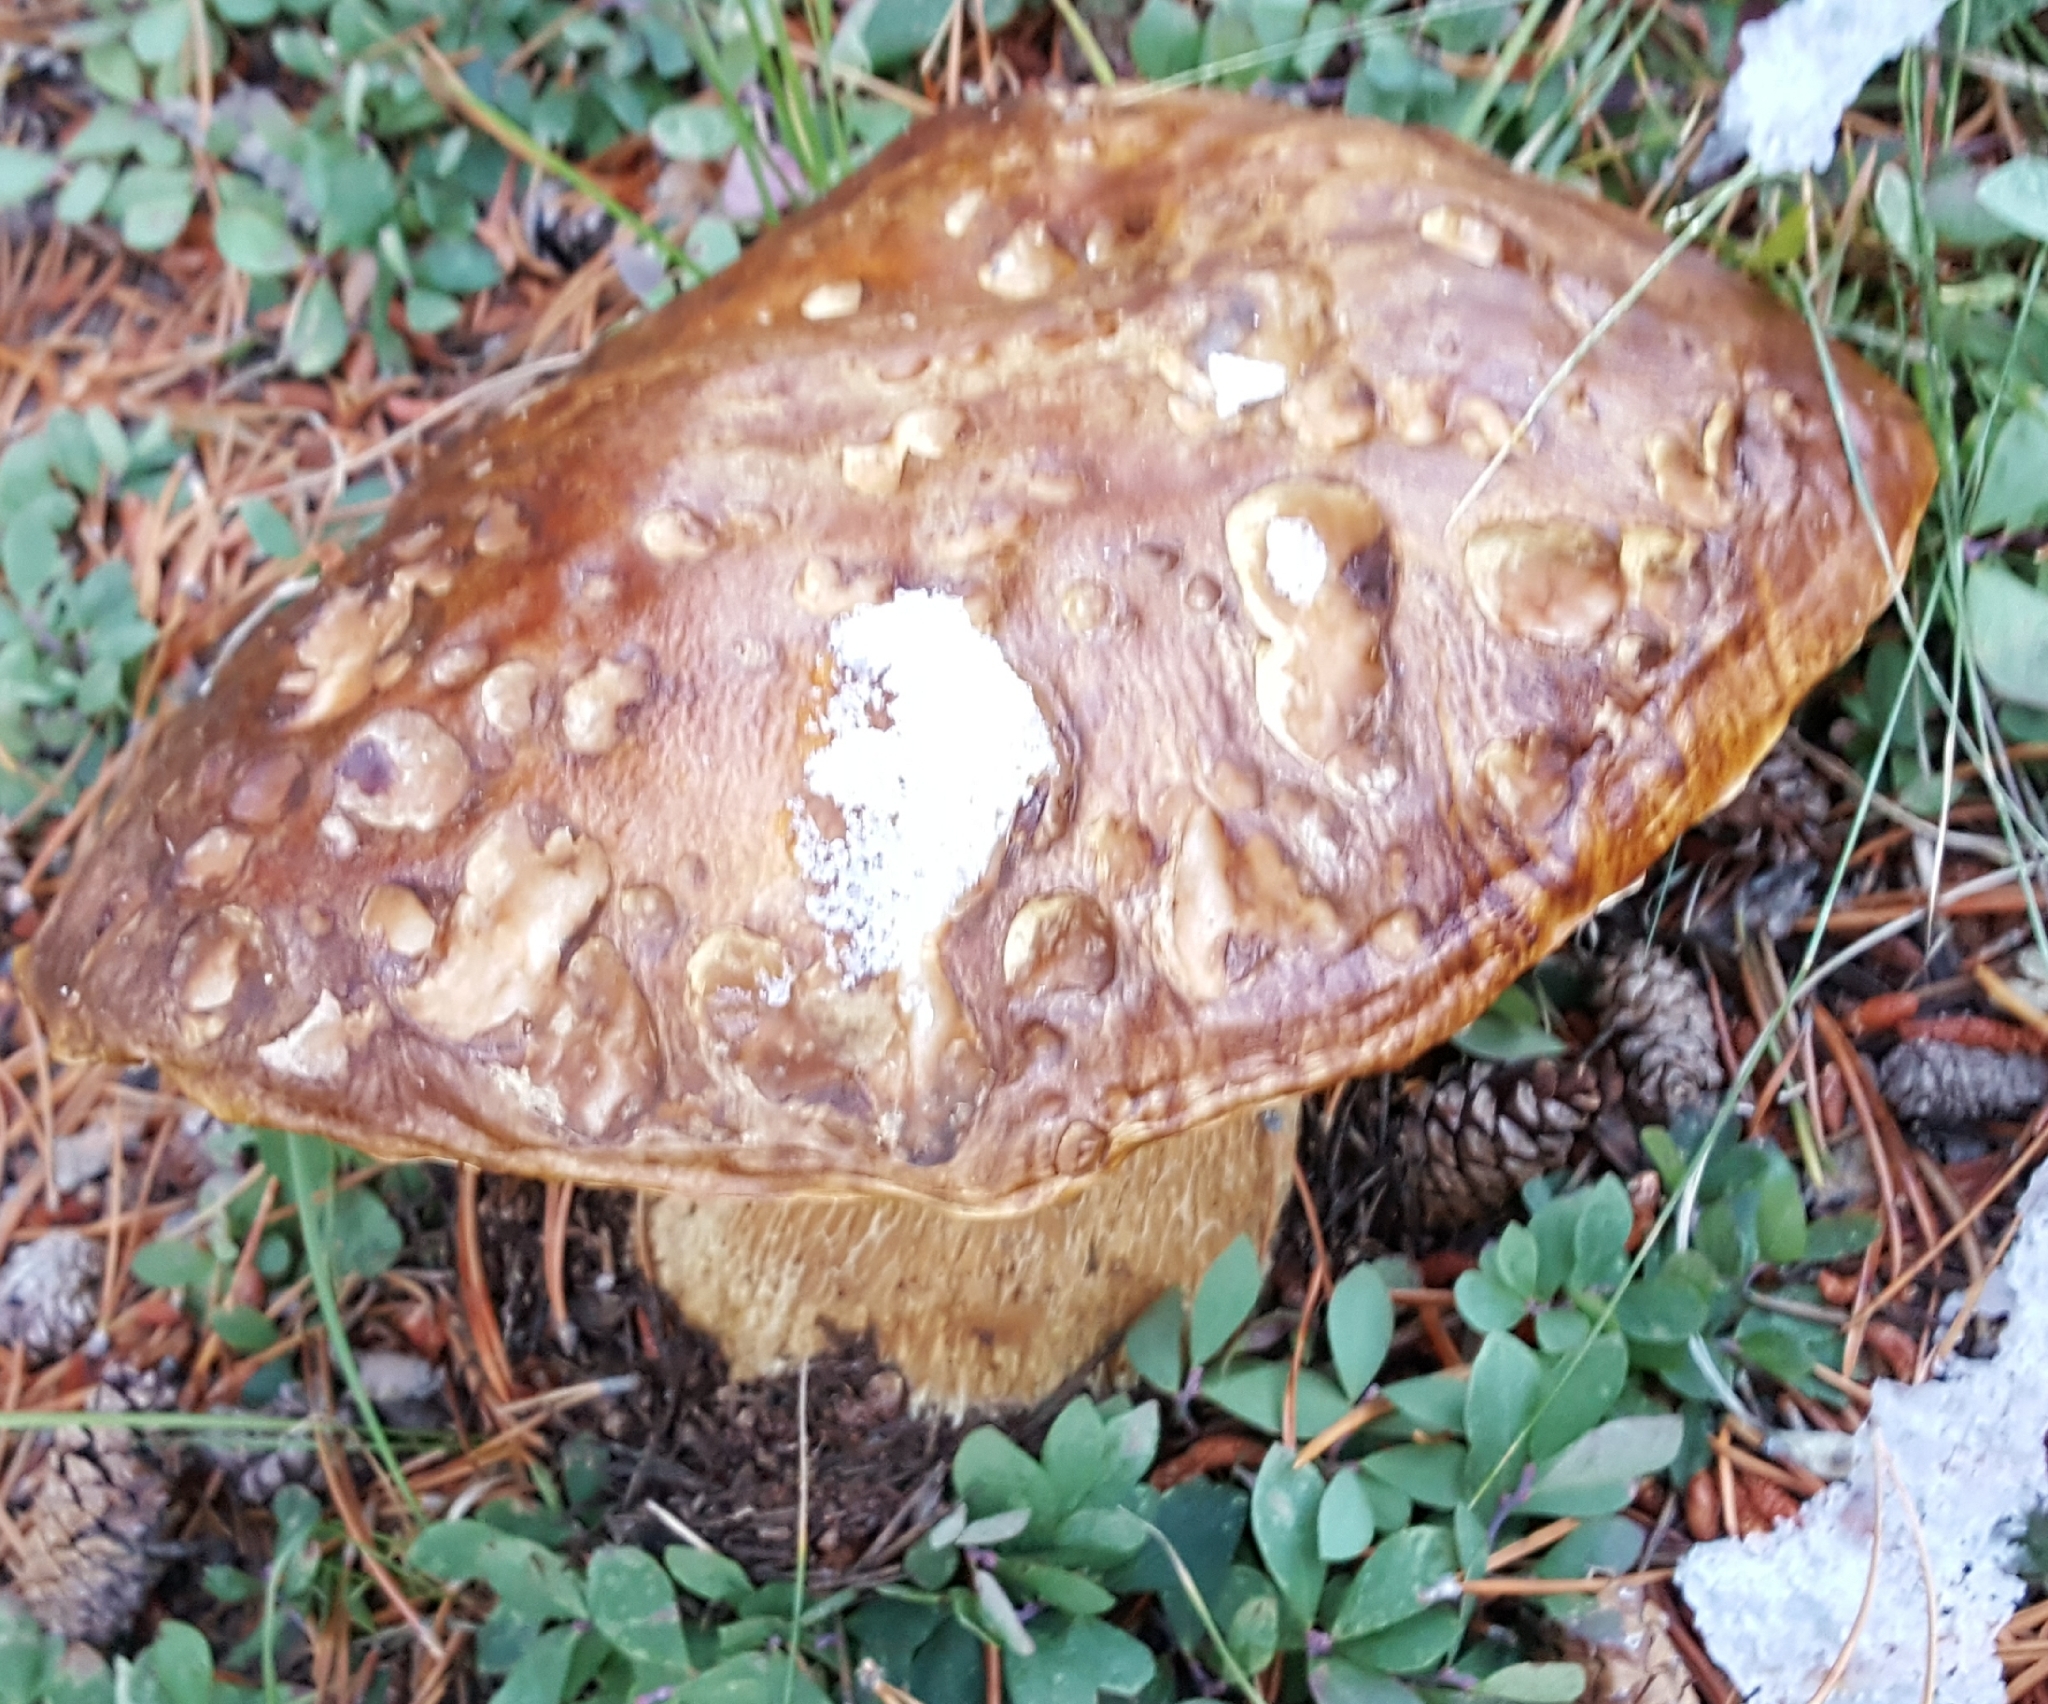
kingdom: Fungi
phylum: Basidiomycota
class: Agaricomycetes
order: Boletales
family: Boletaceae
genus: Boletus
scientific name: Boletus edulis
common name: Cep
